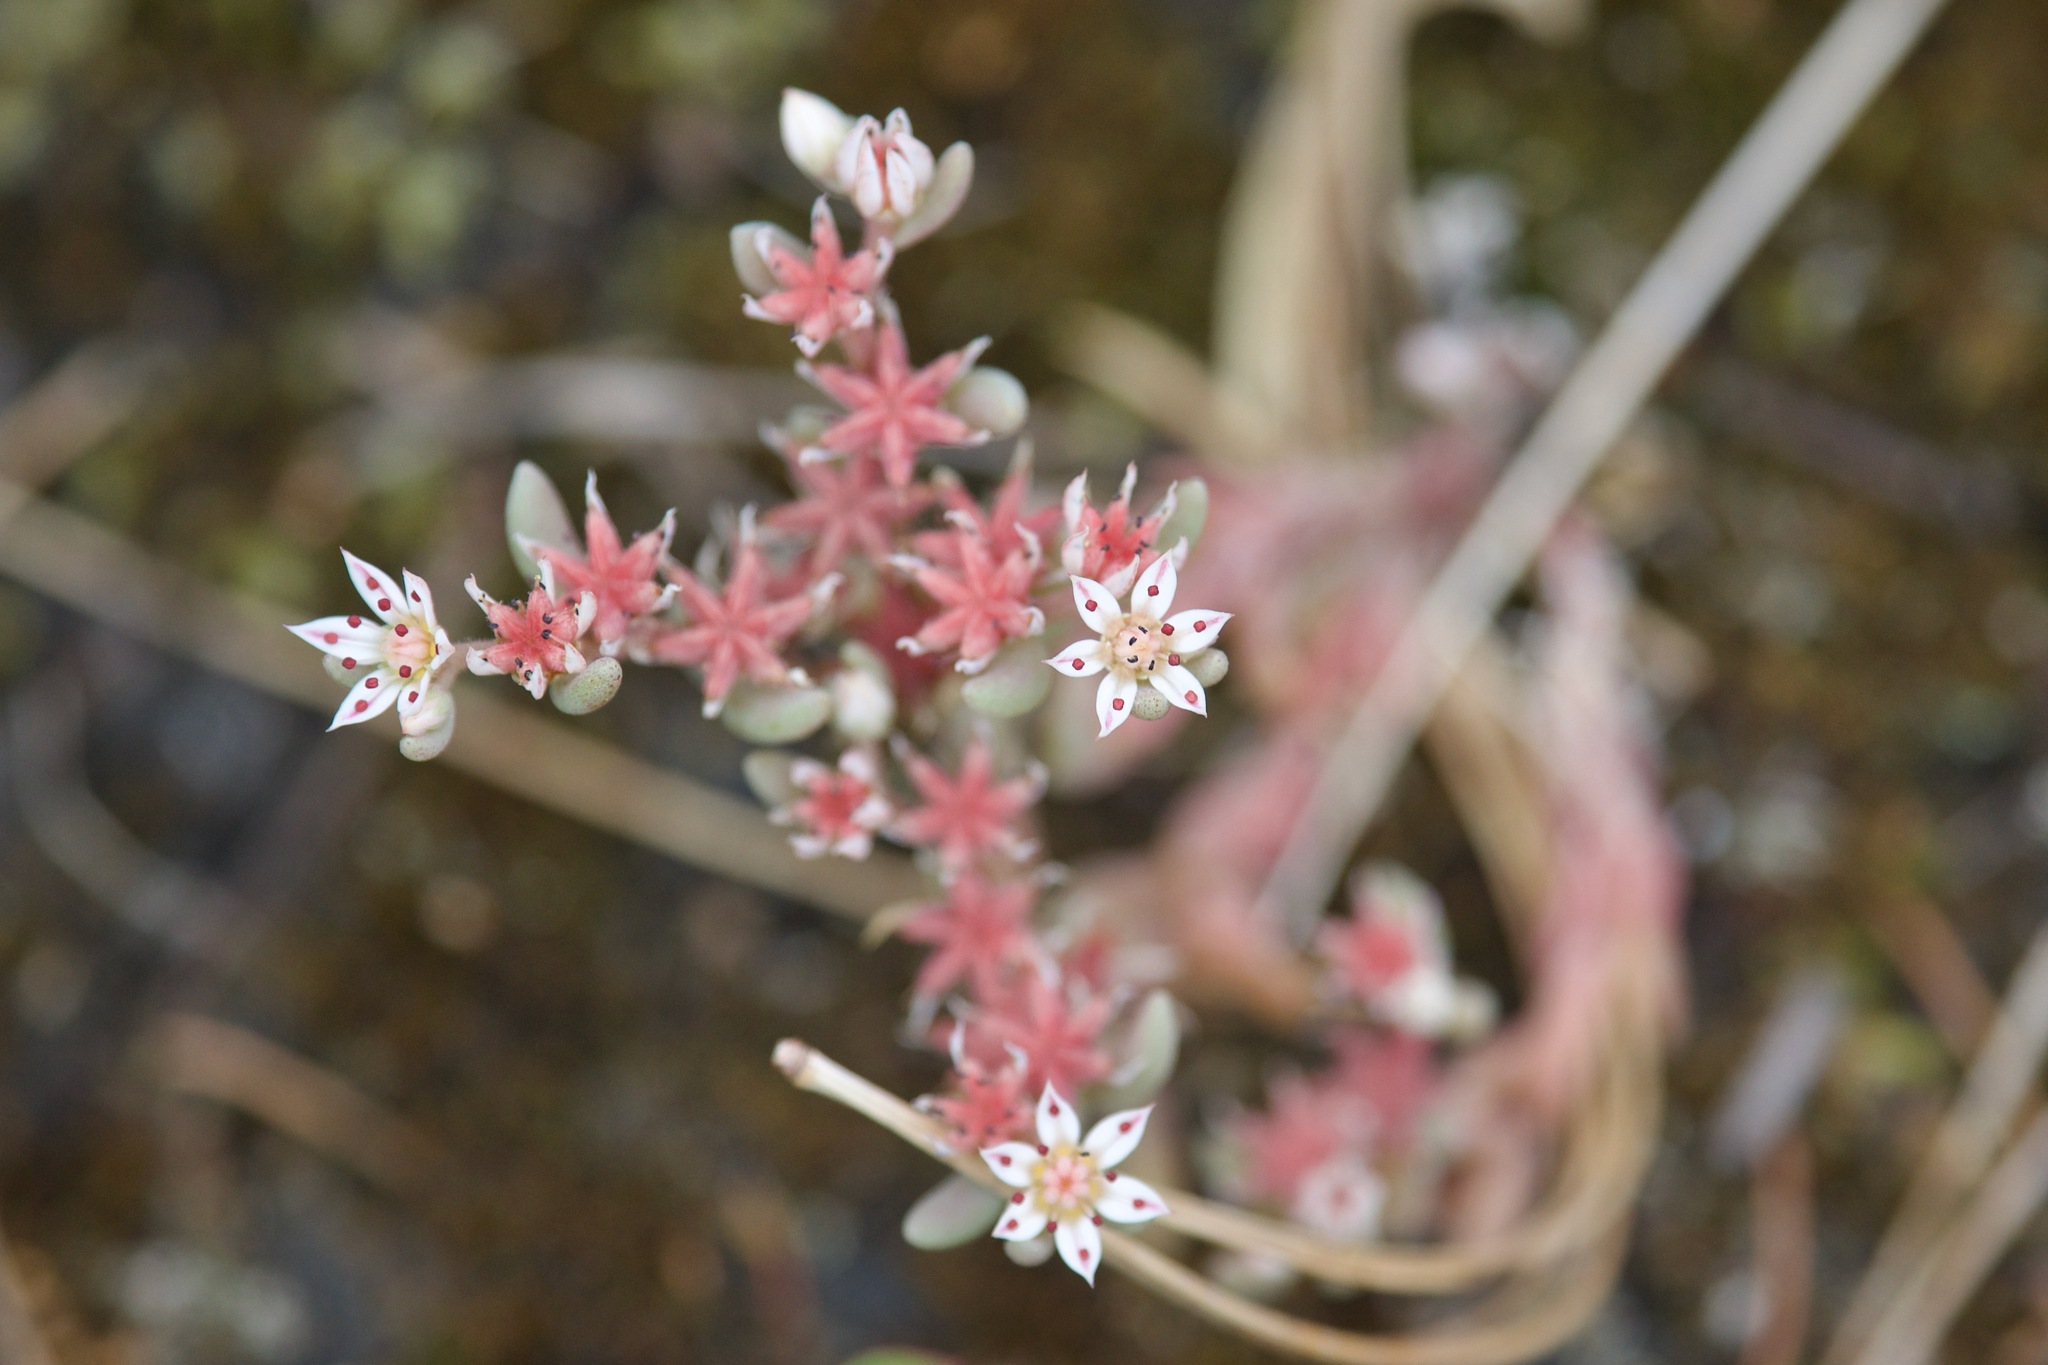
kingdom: Plantae
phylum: Tracheophyta
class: Magnoliopsida
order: Saxifragales
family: Crassulaceae
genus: Sedum
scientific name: Sedum hispanicum
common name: Spanish stonecrop
